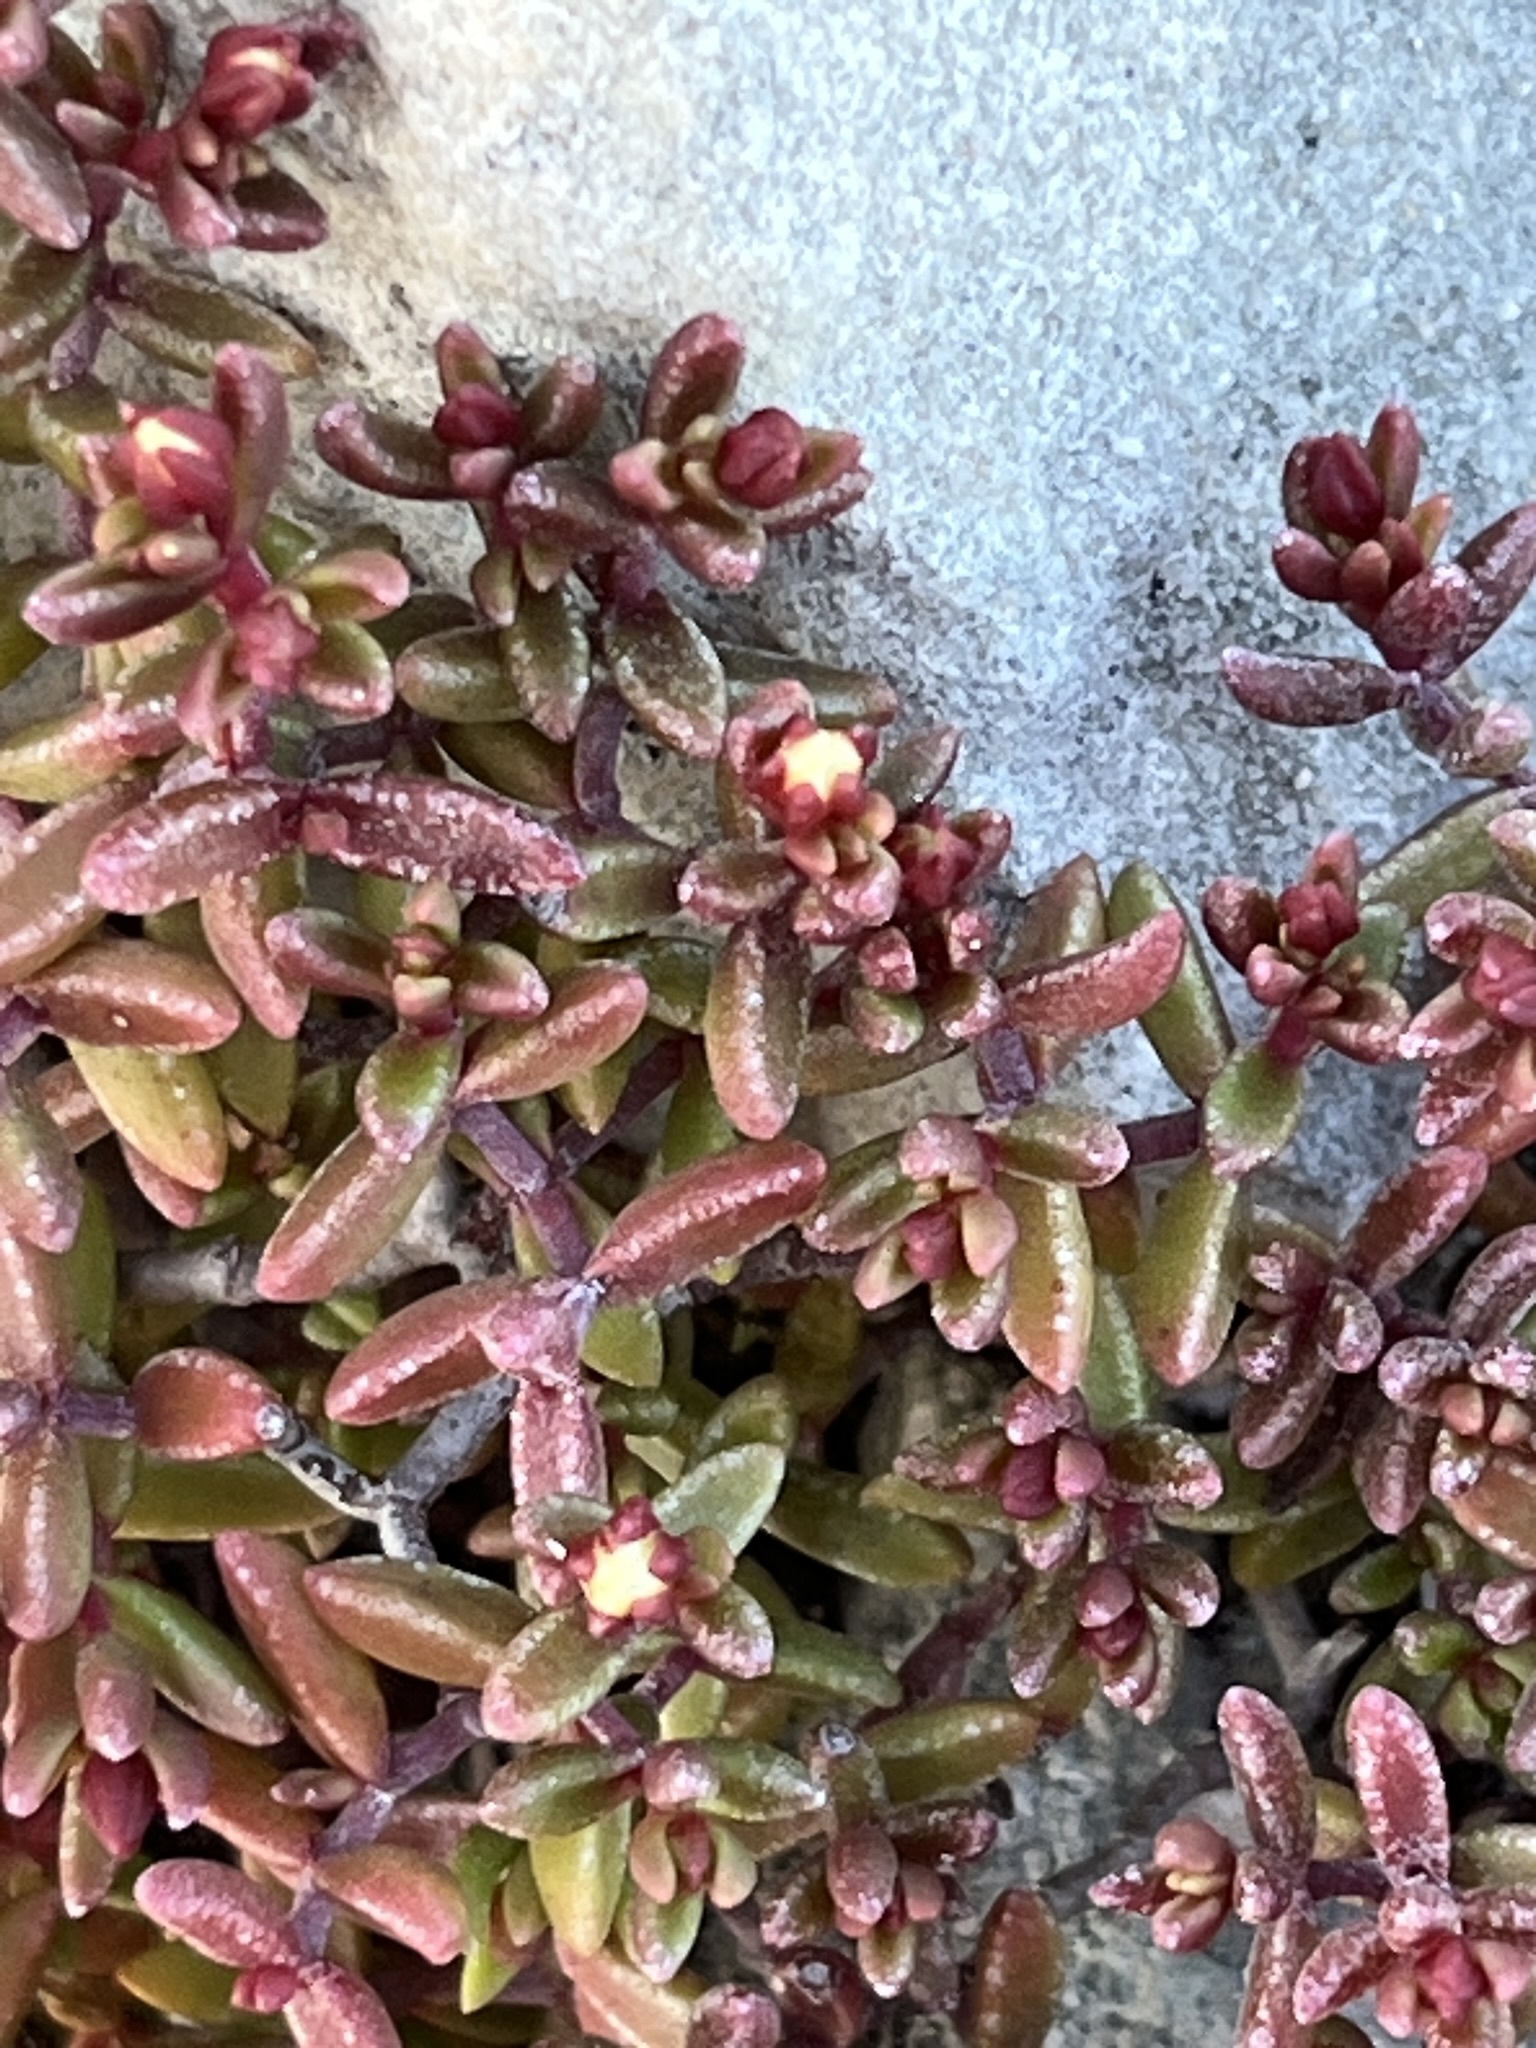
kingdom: Plantae
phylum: Tracheophyta
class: Magnoliopsida
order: Saxifragales
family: Crassulaceae
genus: Crassula
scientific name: Crassula expansa
